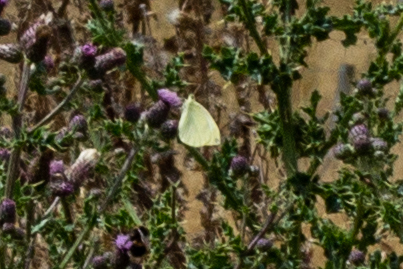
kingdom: Animalia
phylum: Arthropoda
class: Insecta
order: Lepidoptera
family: Pieridae
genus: Pieris
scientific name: Pieris rapae
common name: Small white
